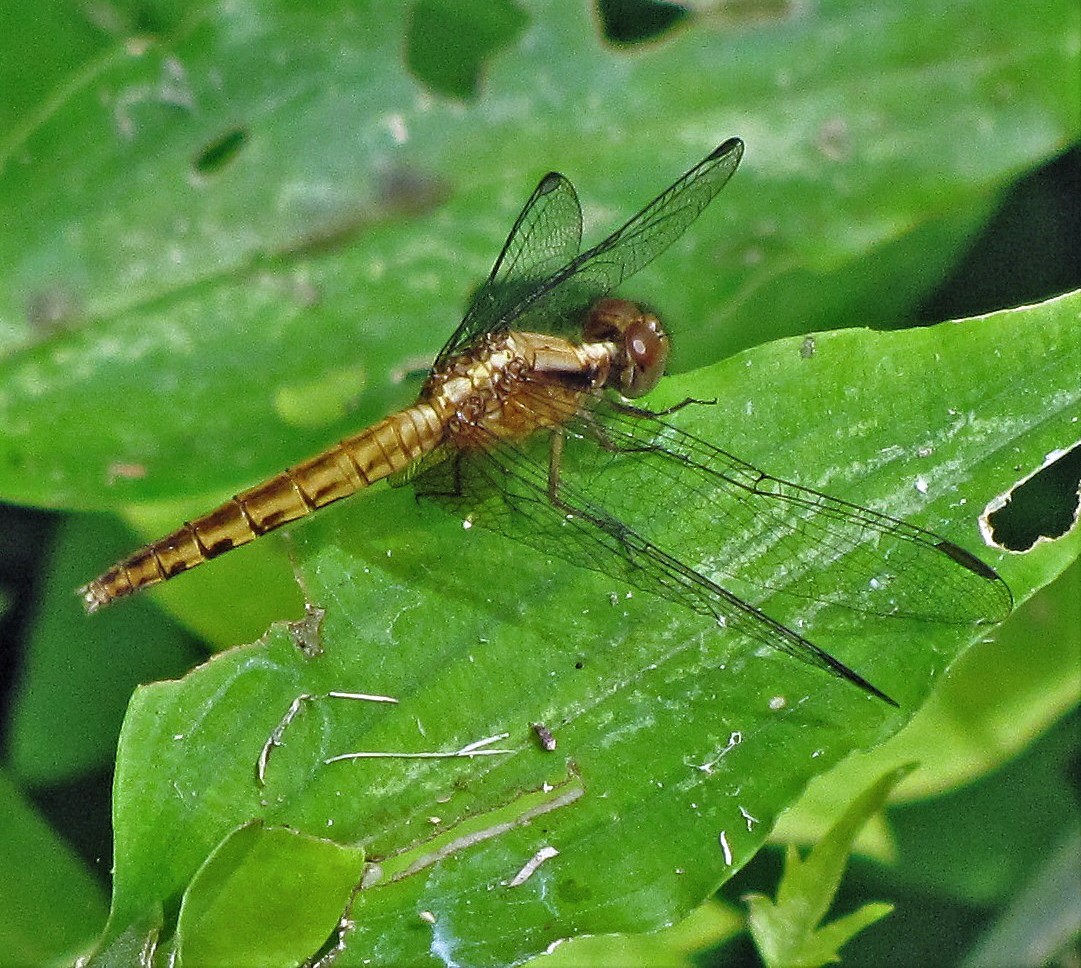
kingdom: Animalia
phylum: Arthropoda
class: Insecta
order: Odonata
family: Libellulidae
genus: Erythrodiplax
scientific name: Erythrodiplax melanorubra
